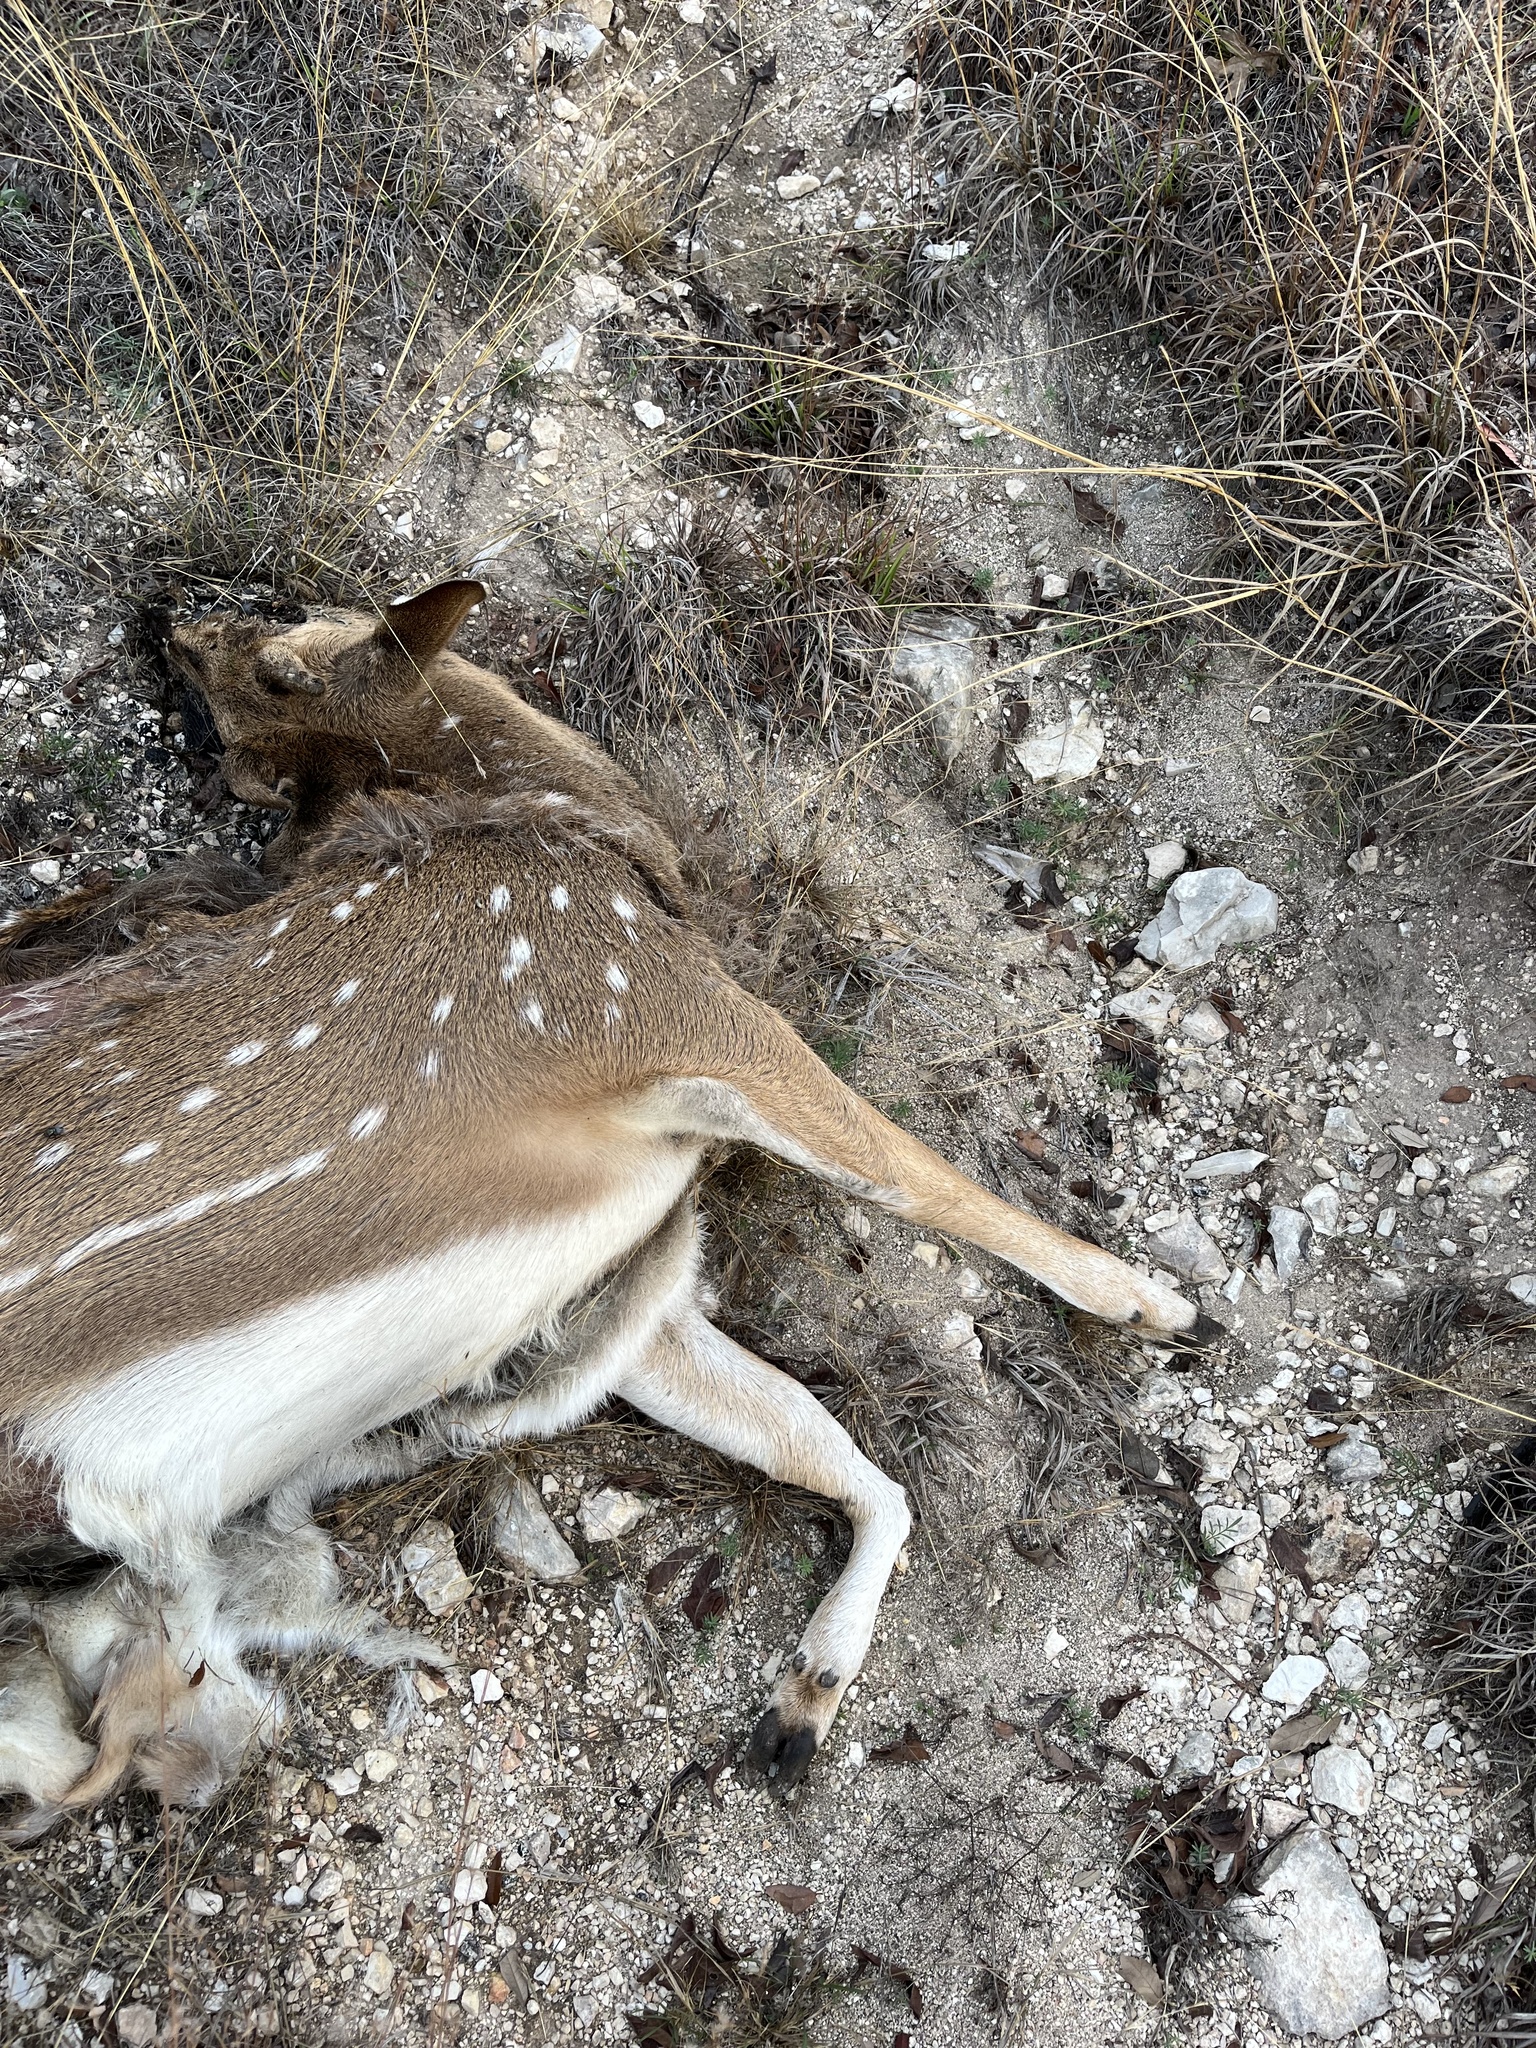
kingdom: Animalia
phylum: Chordata
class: Mammalia
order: Artiodactyla
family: Cervidae
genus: Axis
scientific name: Axis axis
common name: Chital
